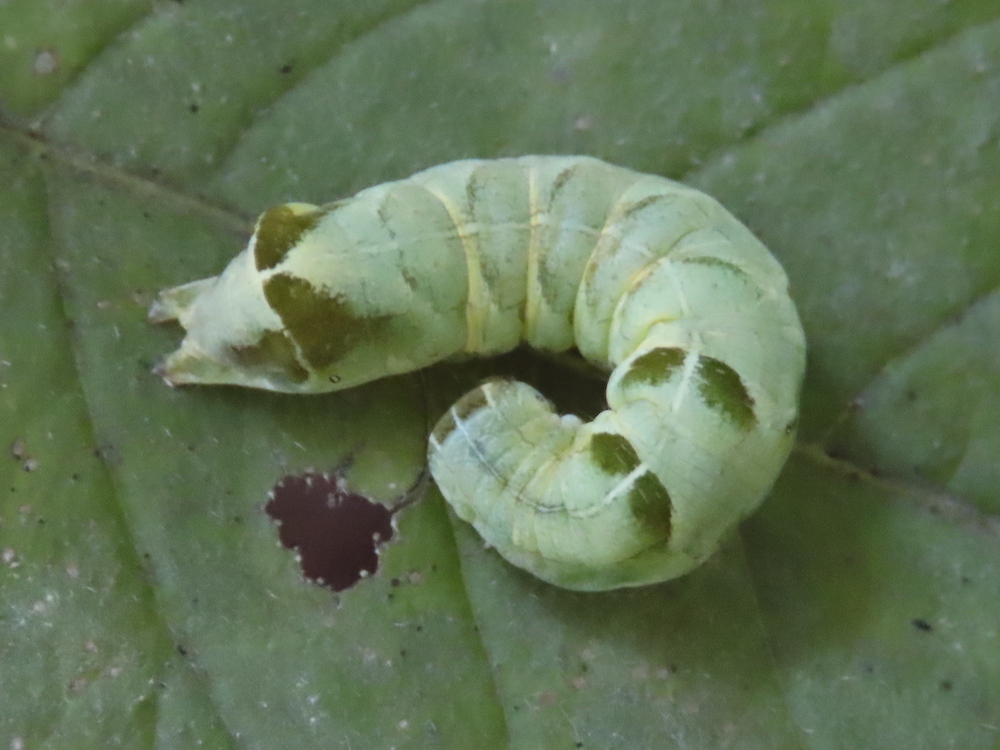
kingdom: Animalia
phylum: Arthropoda
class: Insecta
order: Lepidoptera
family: Noctuidae
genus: Melanchra
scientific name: Melanchra adjuncta
